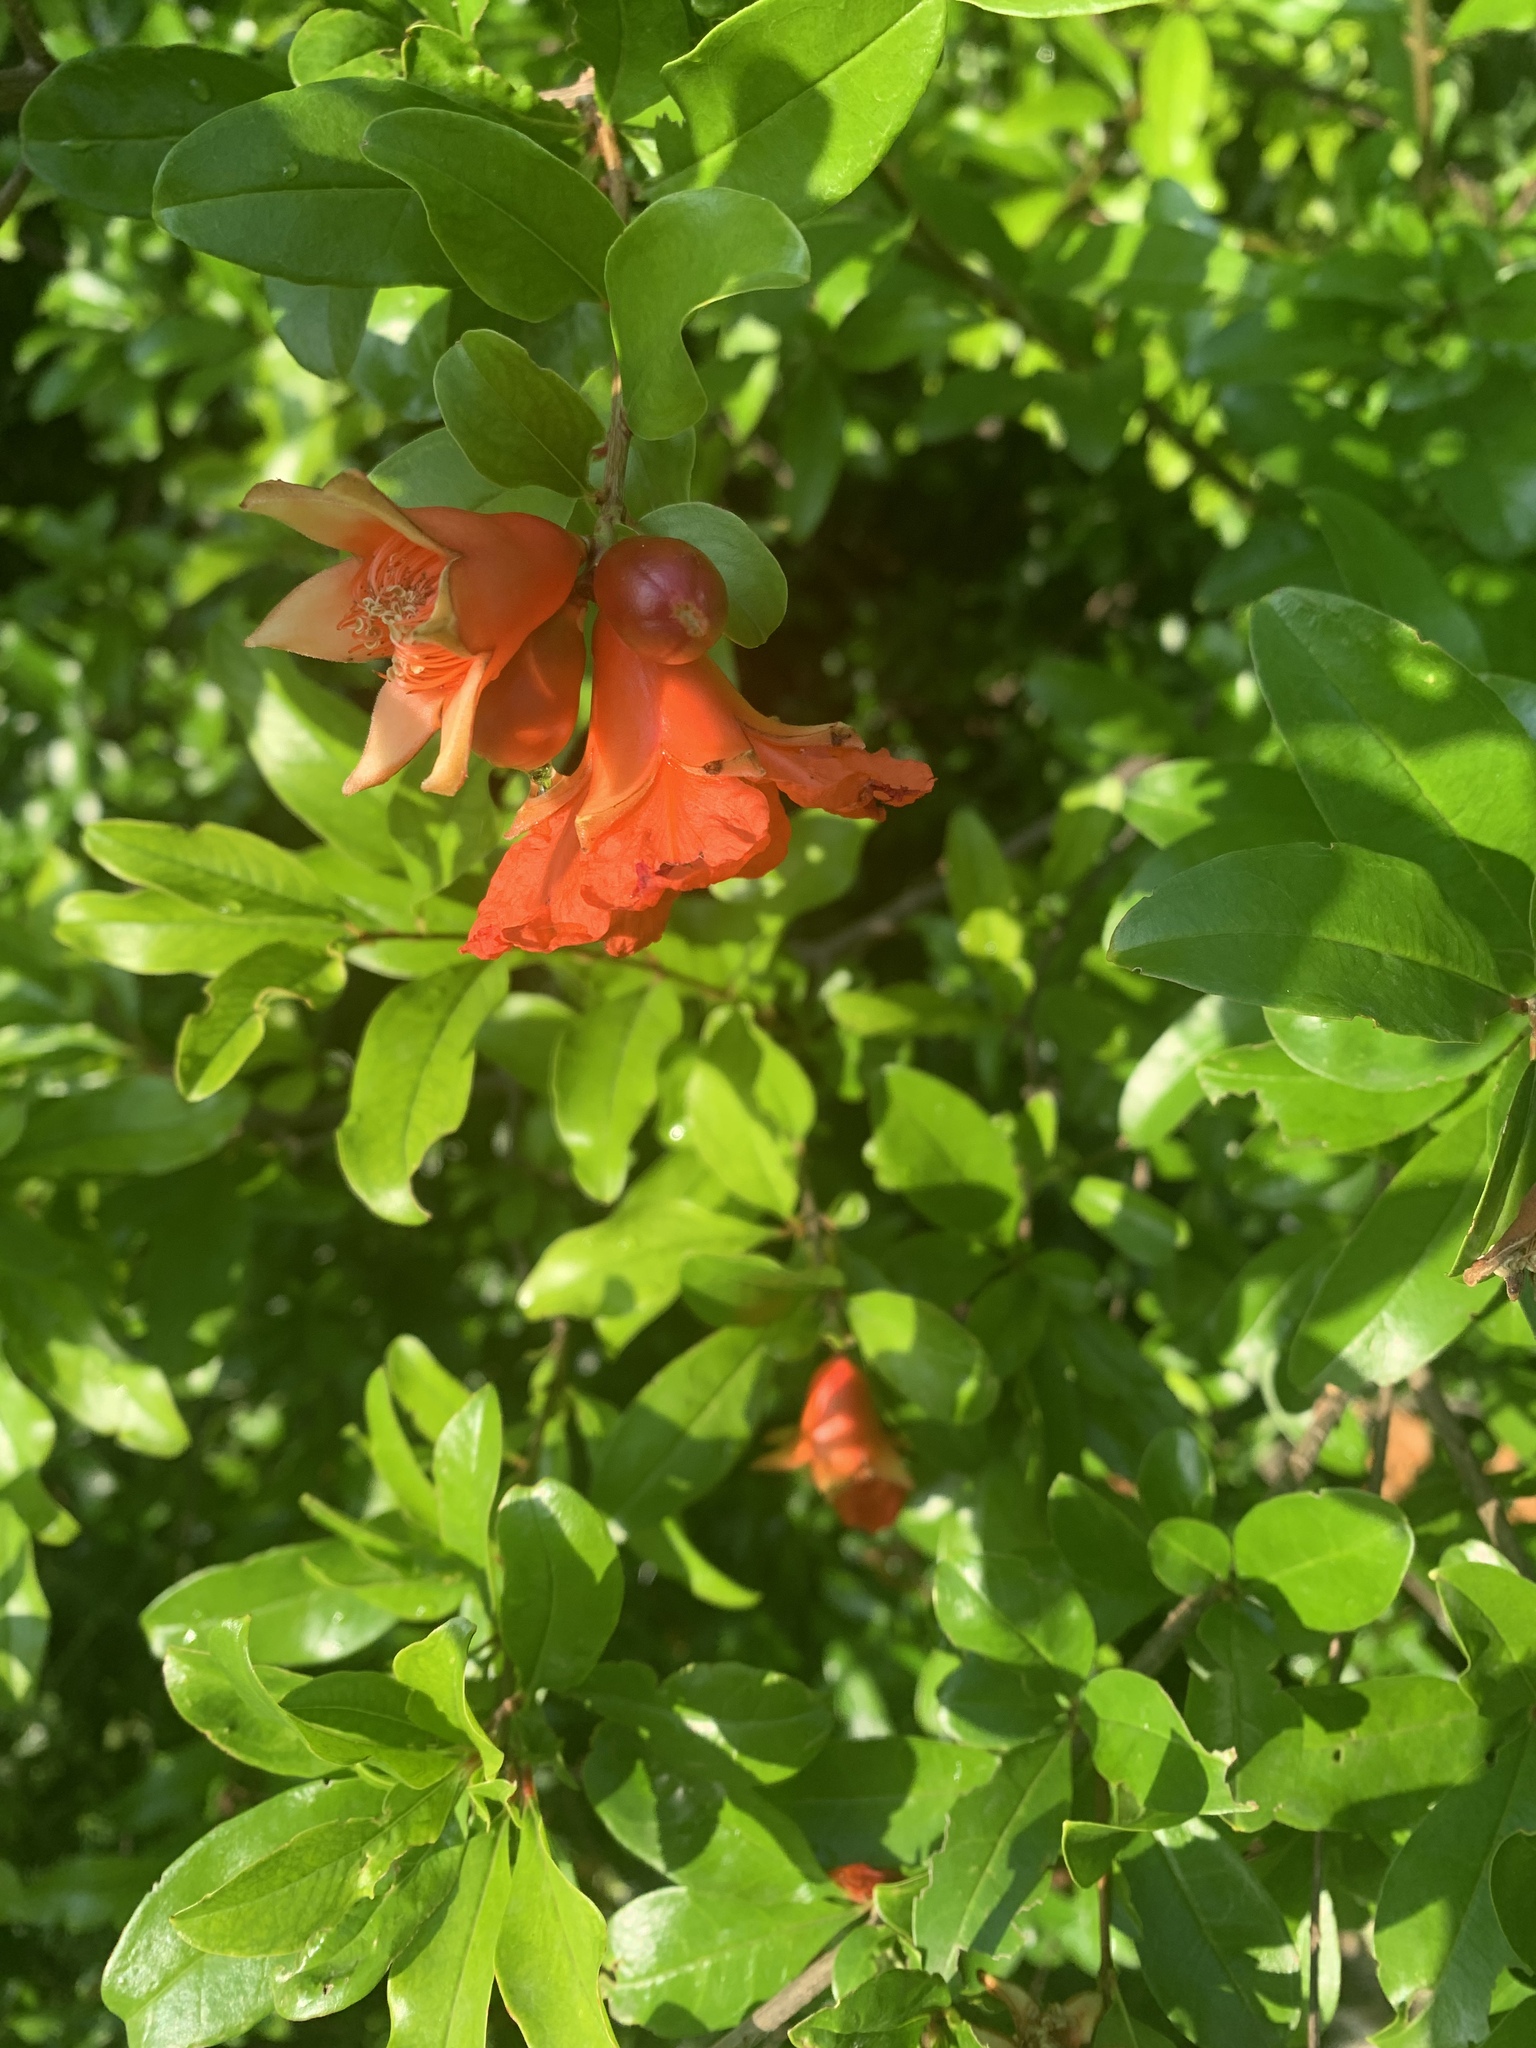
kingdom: Plantae
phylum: Tracheophyta
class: Magnoliopsida
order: Myrtales
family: Lythraceae
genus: Punica
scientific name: Punica granatum
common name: Pomegranate
